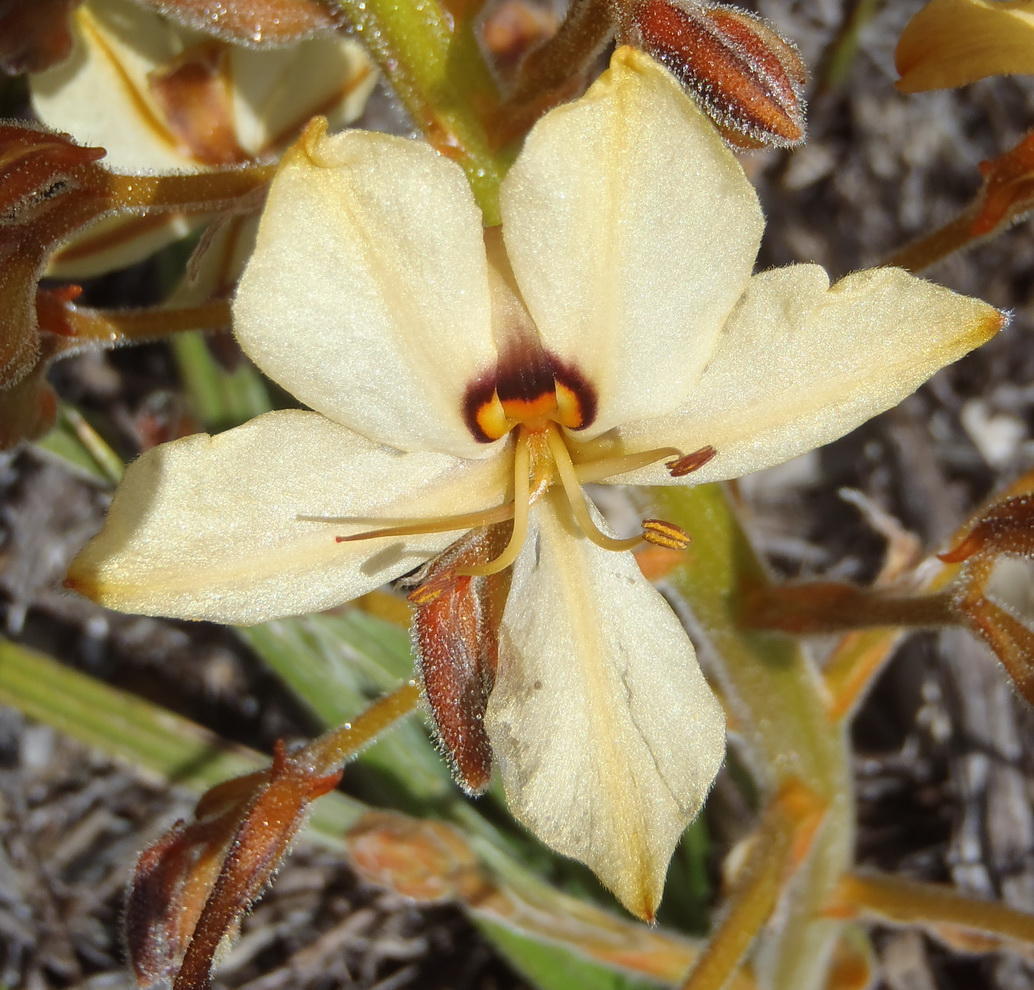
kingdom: Plantae
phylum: Tracheophyta
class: Liliopsida
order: Commelinales
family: Haemodoraceae
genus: Wachendorfia
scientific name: Wachendorfia paniculata
